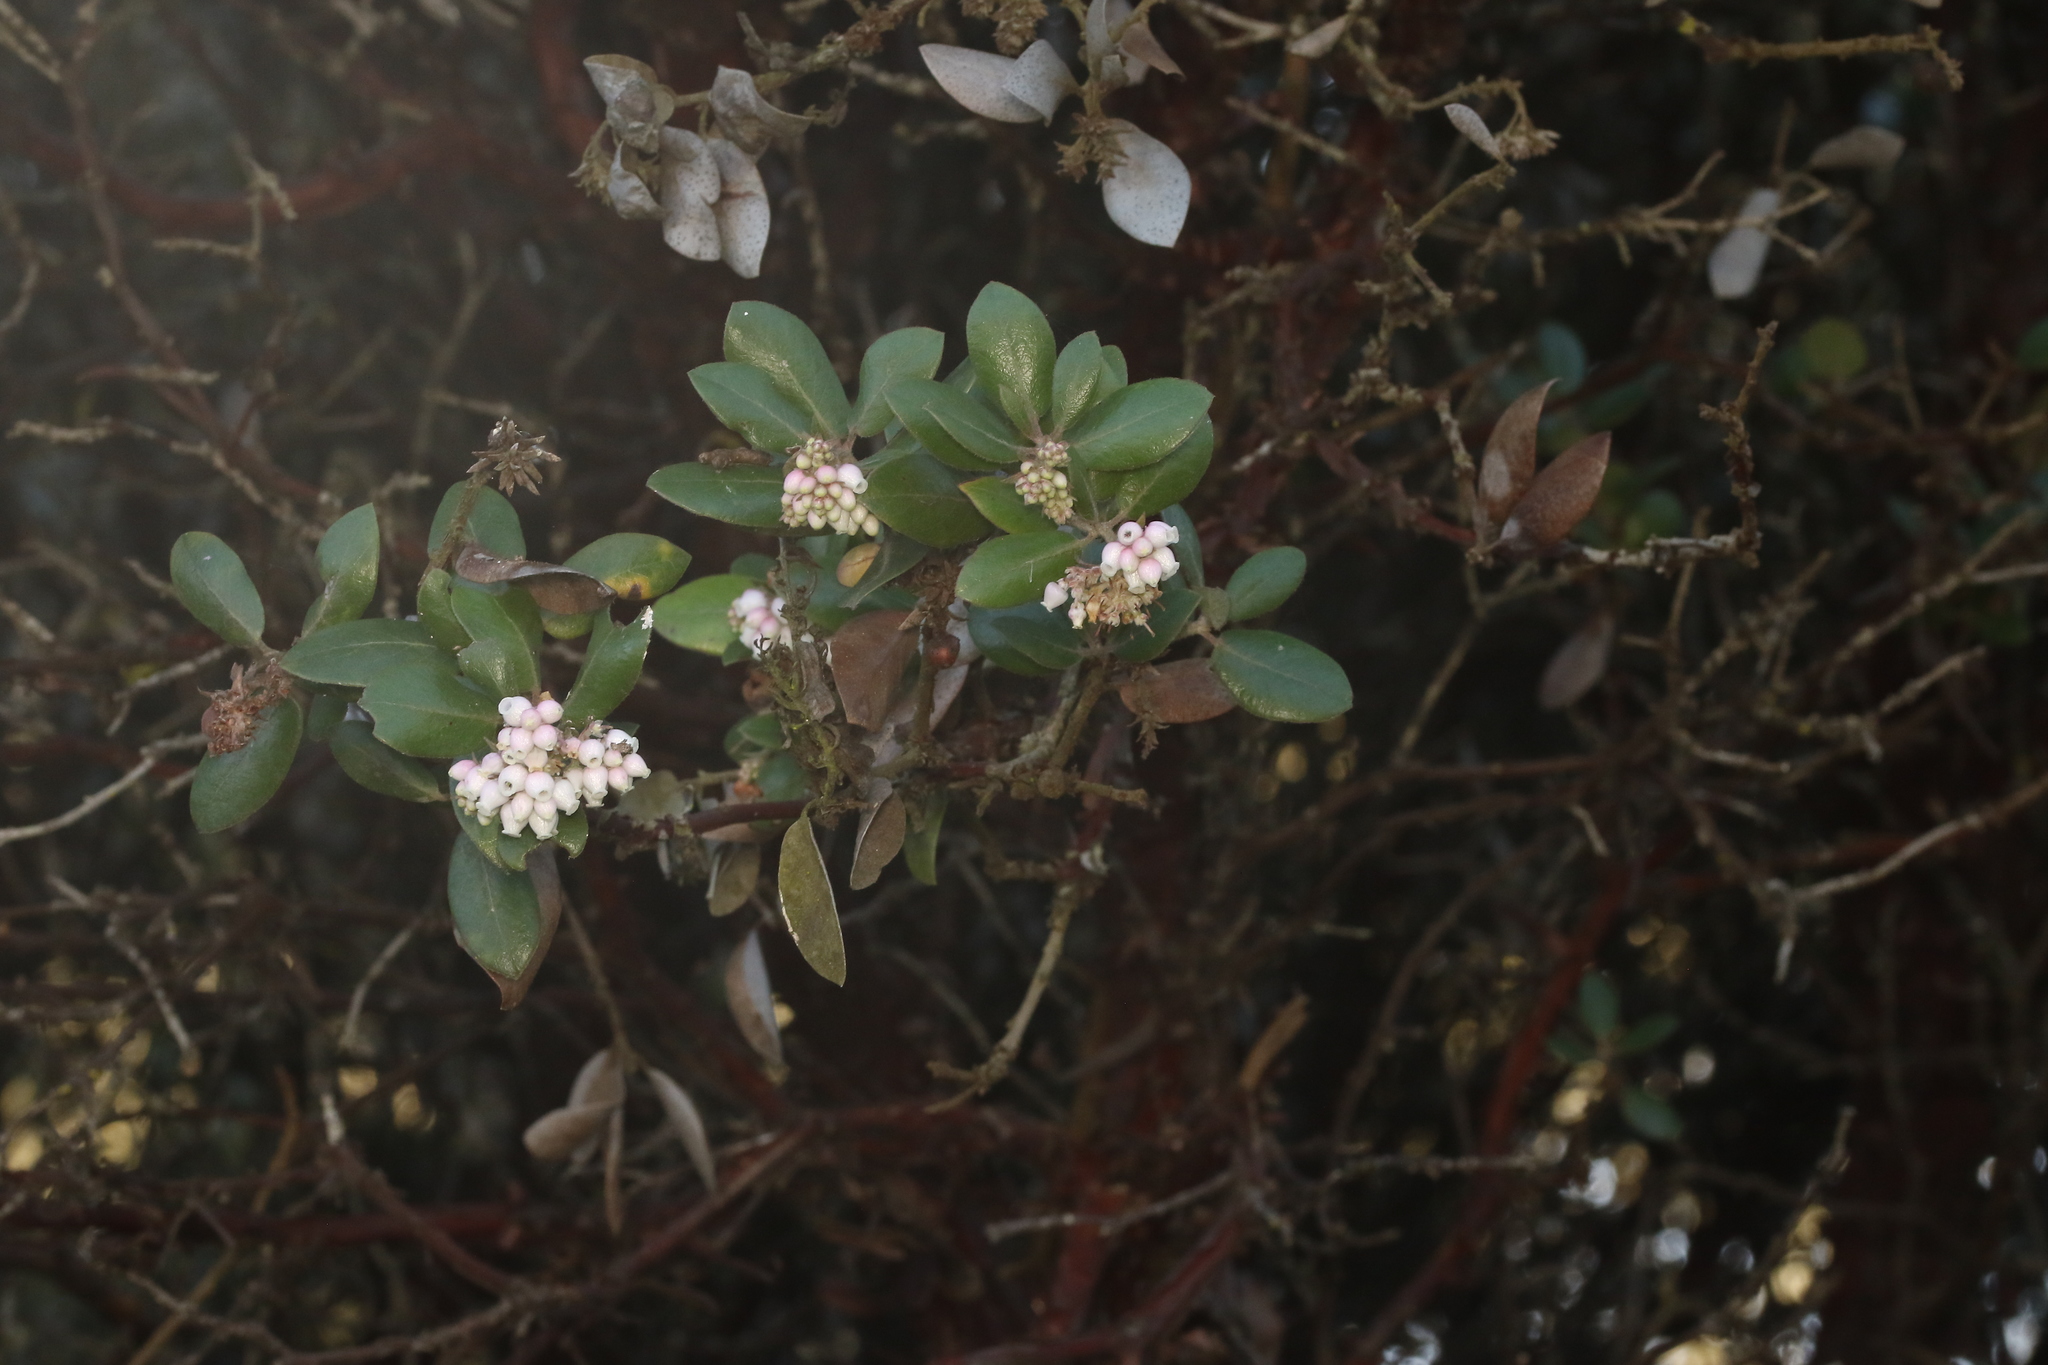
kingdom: Plantae
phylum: Tracheophyta
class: Magnoliopsida
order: Ericales
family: Ericaceae
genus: Arctostaphylos
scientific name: Arctostaphylos tomentosa
